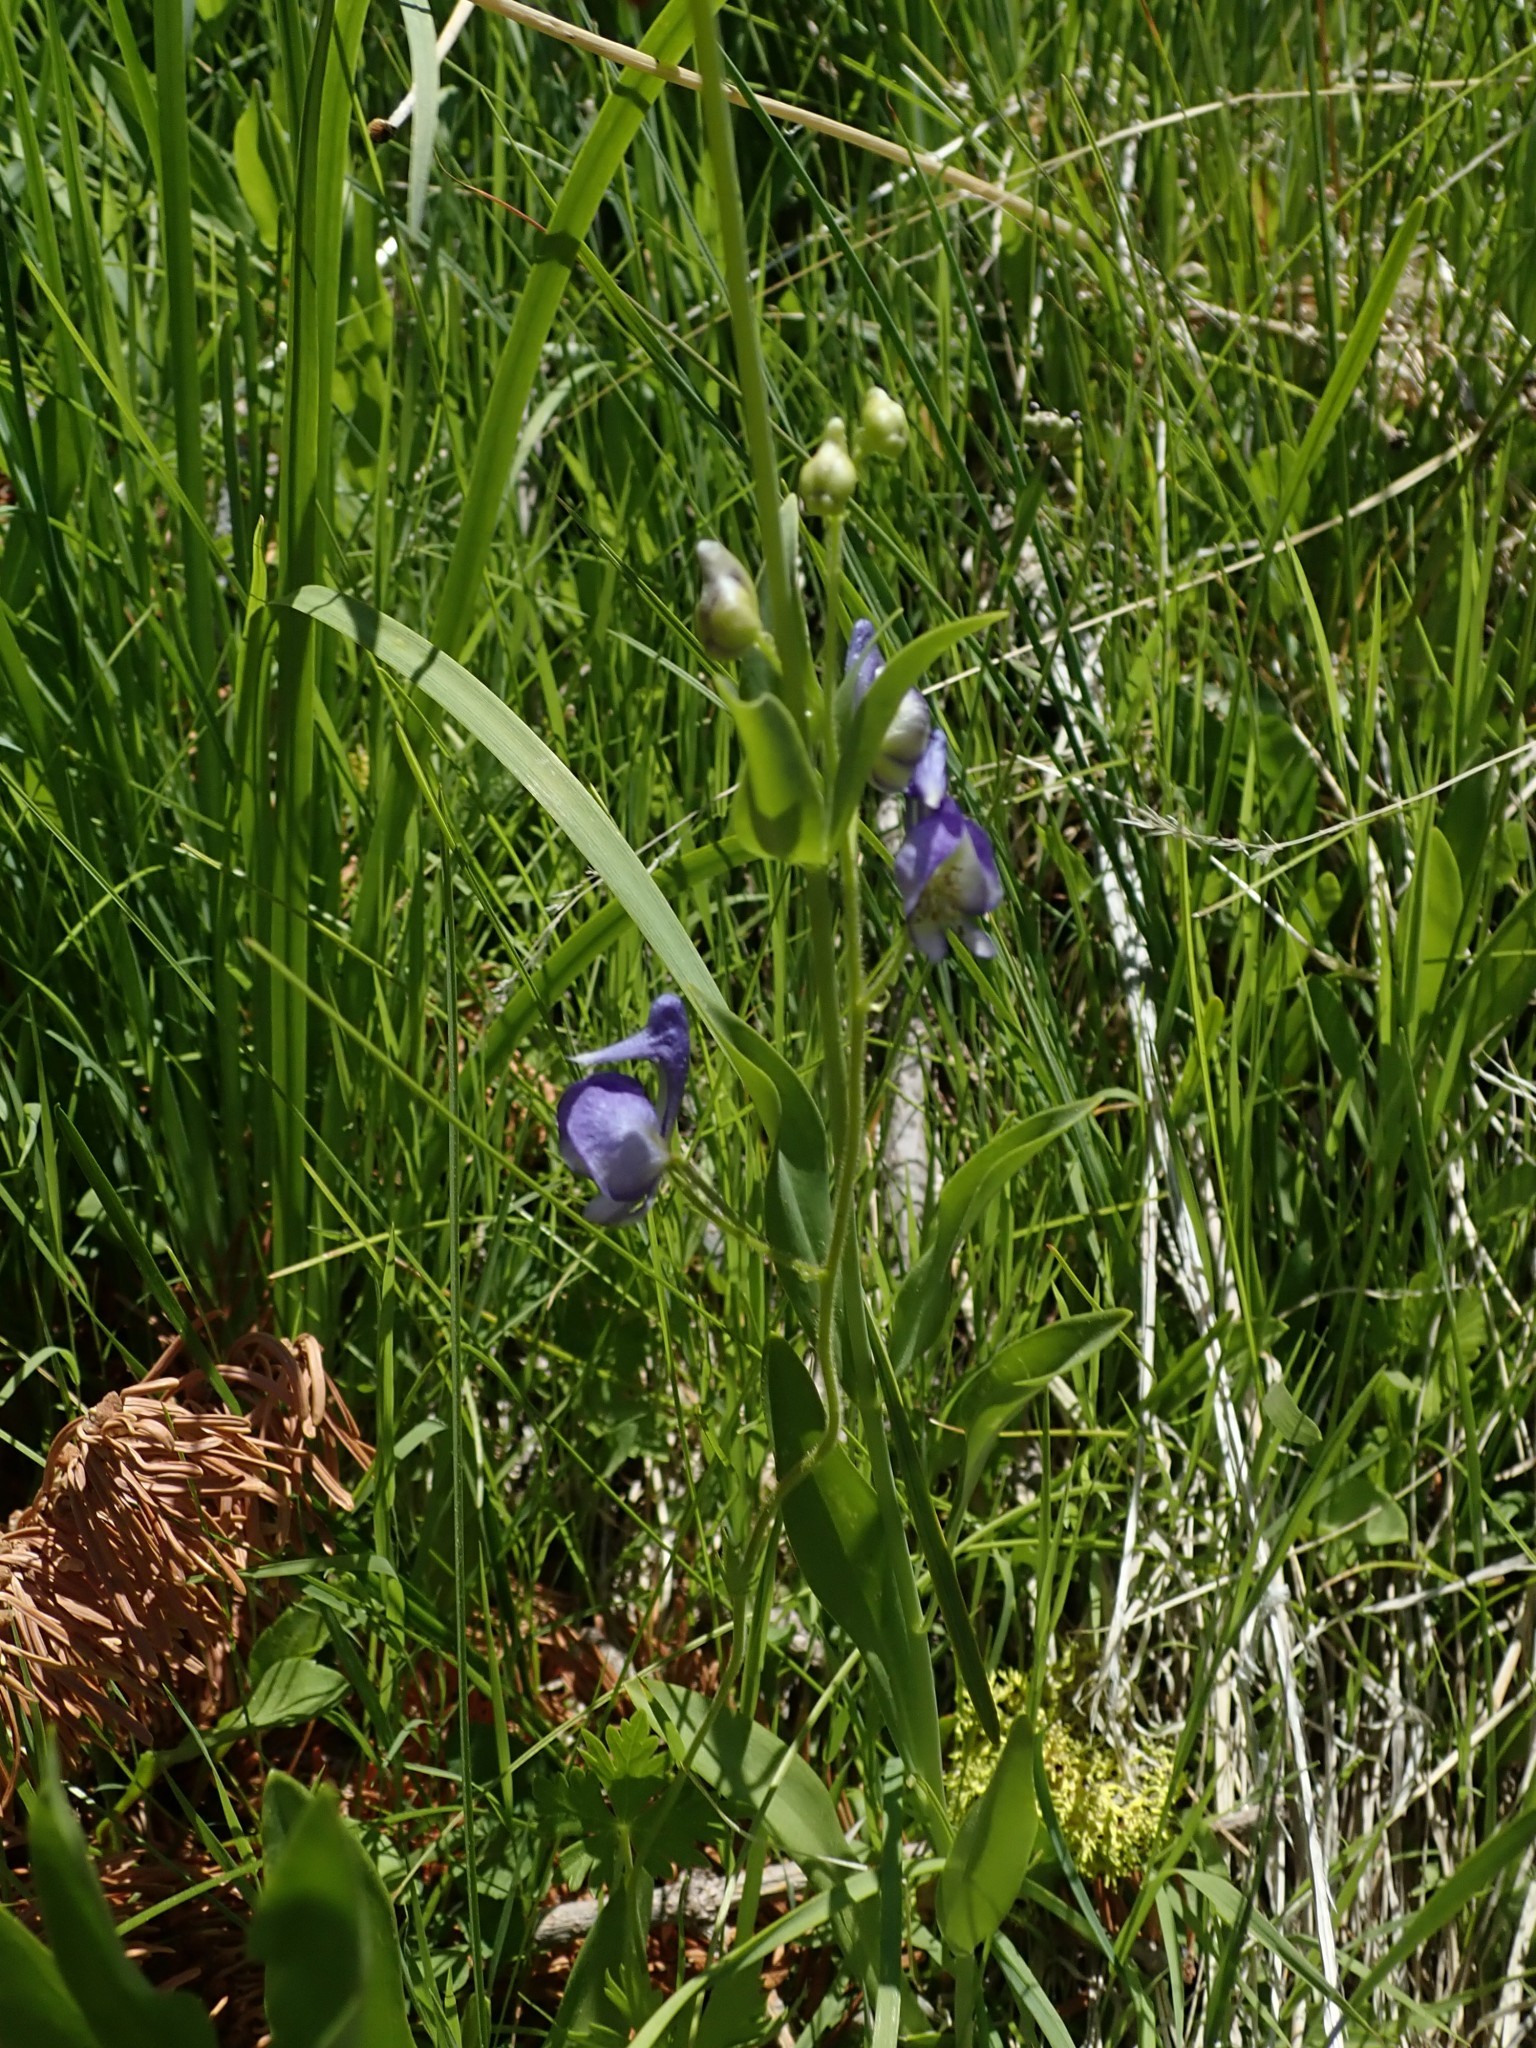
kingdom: Plantae
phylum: Tracheophyta
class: Magnoliopsida
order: Ranunculales
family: Ranunculaceae
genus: Aconitum
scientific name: Aconitum columbianum
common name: Columbia aconite
